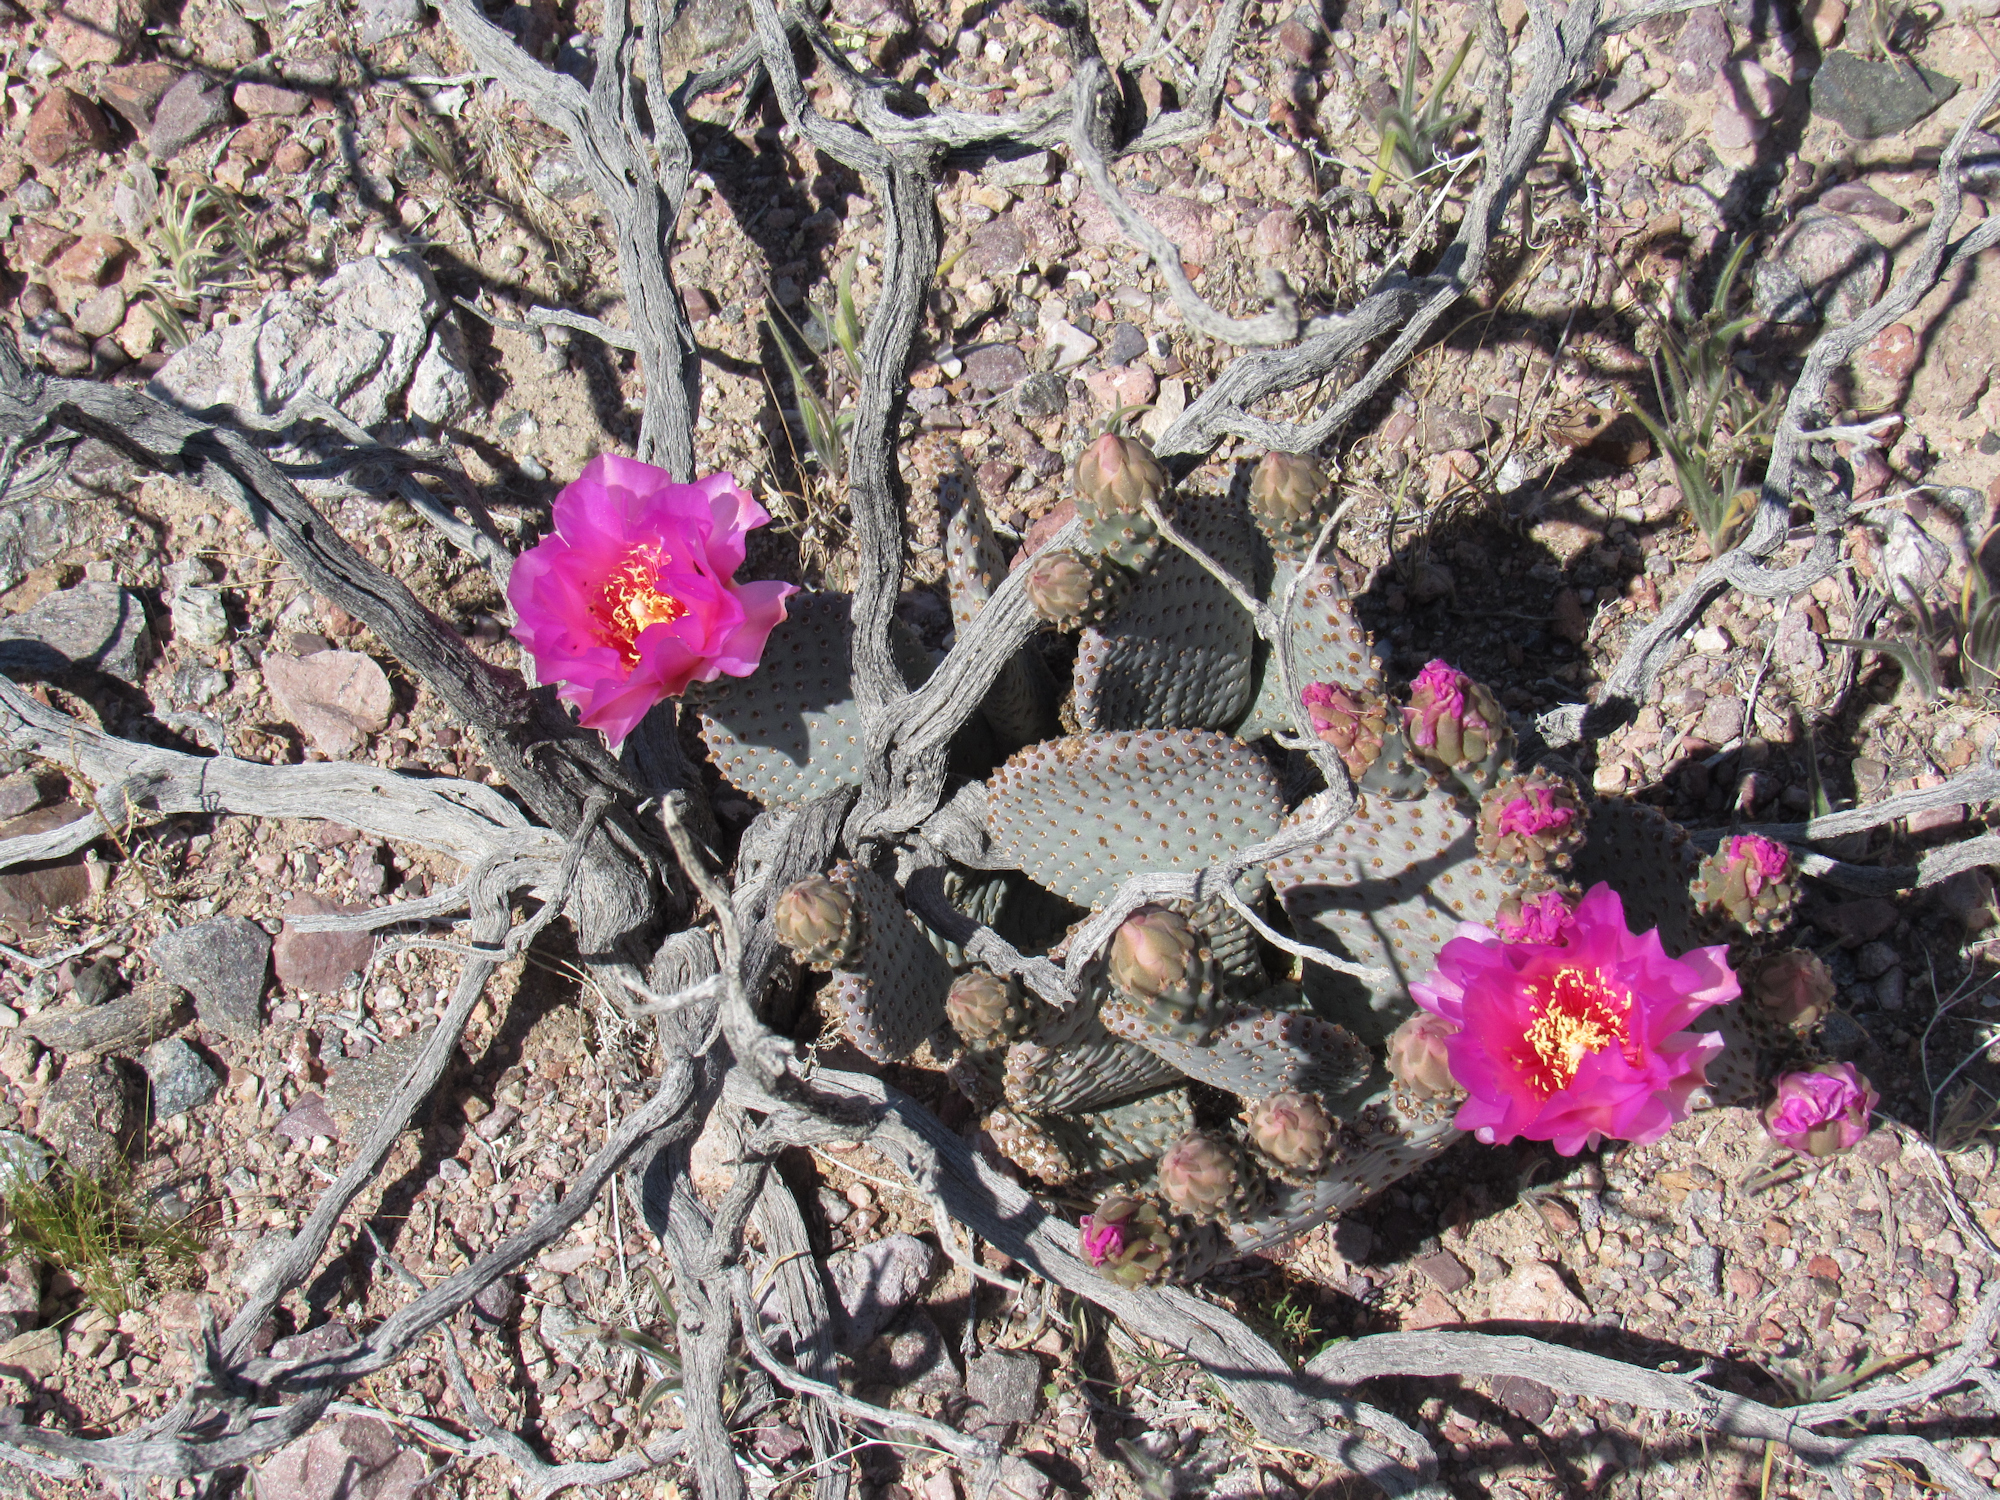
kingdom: Plantae
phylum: Tracheophyta
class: Magnoliopsida
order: Caryophyllales
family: Cactaceae
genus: Opuntia
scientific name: Opuntia basilaris
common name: Beavertail prickly-pear
